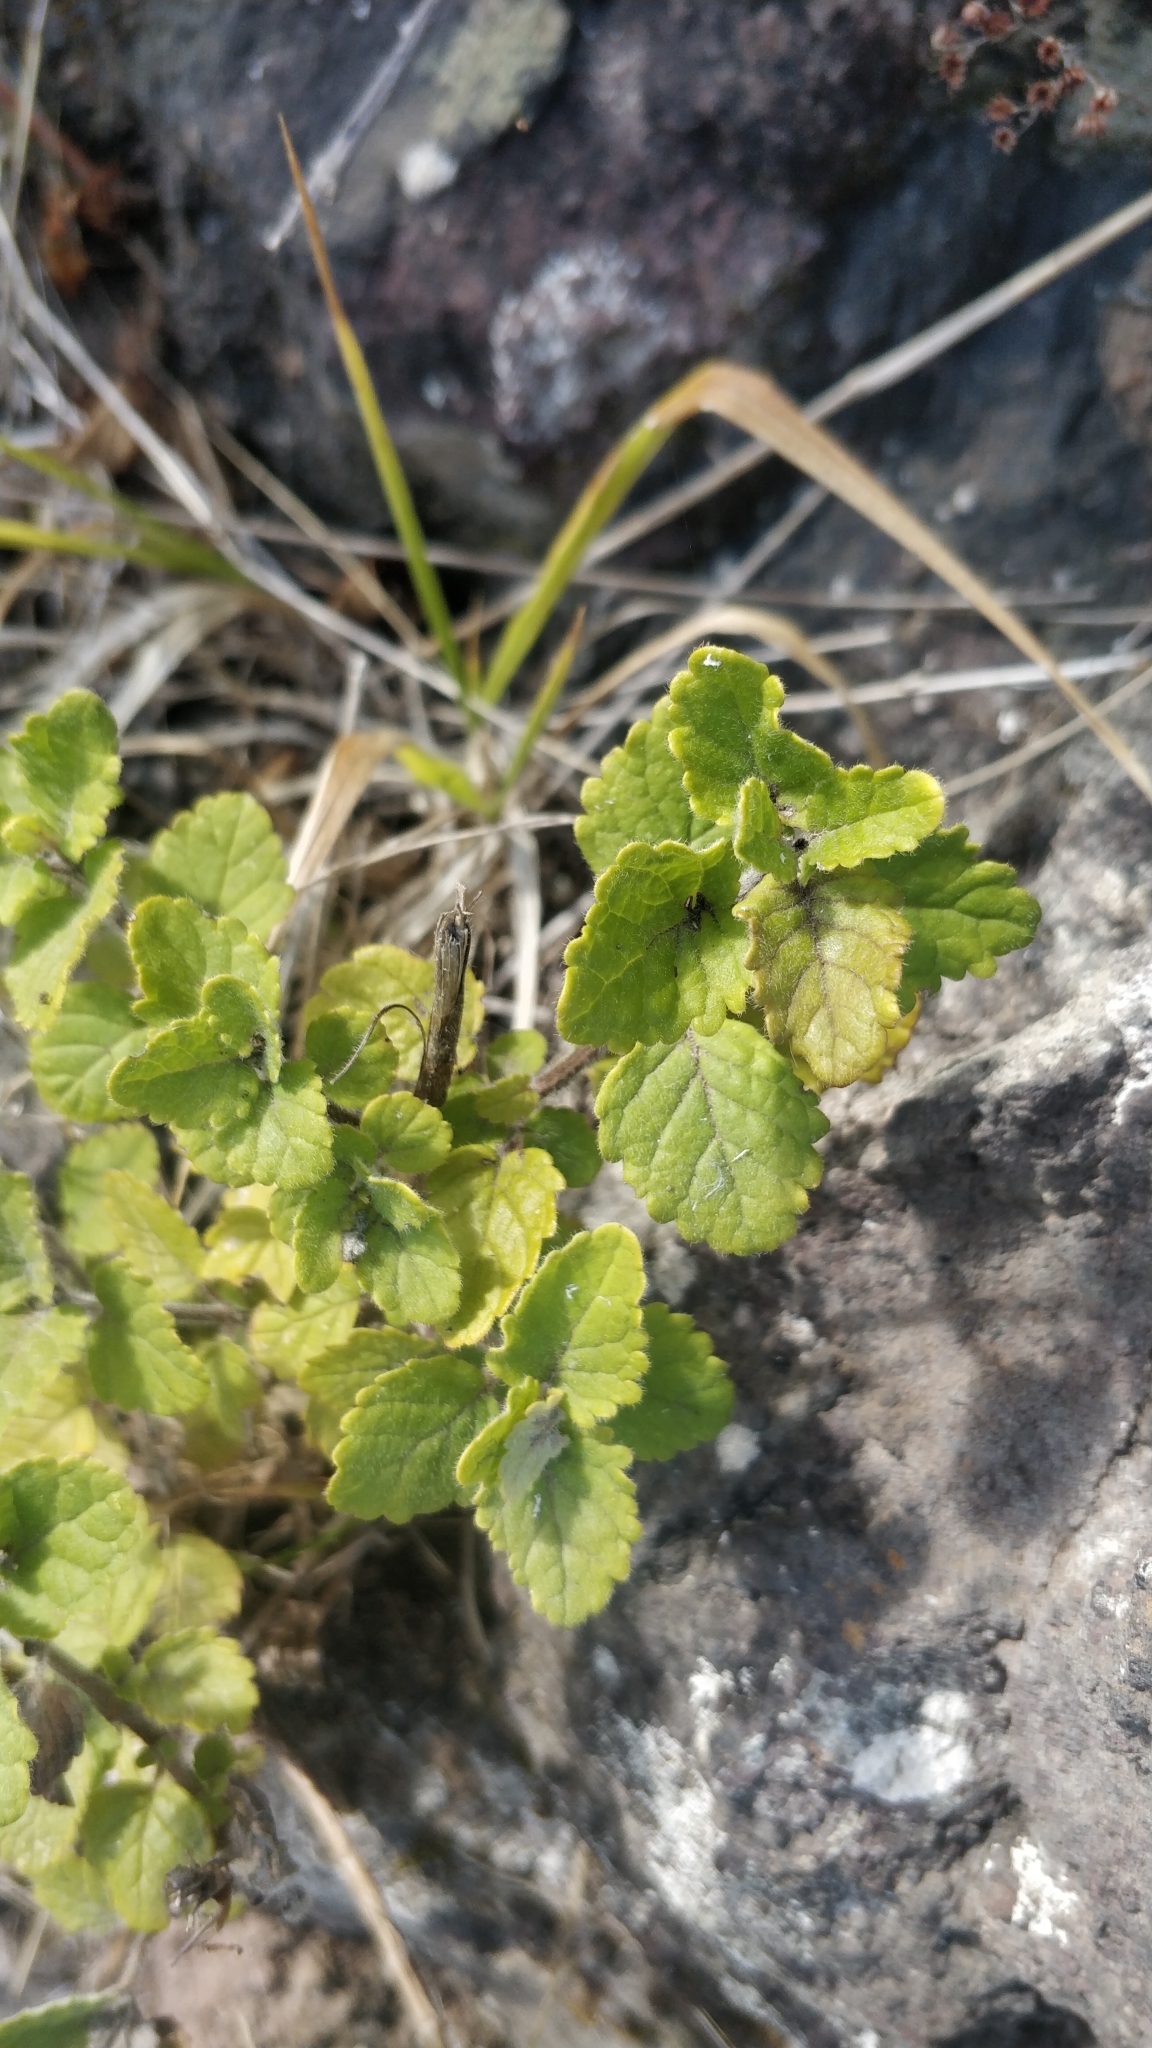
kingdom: Plantae
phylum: Tracheophyta
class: Magnoliopsida
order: Lamiales
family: Lamiaceae
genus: Bystropogon
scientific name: Bystropogon canariensis
